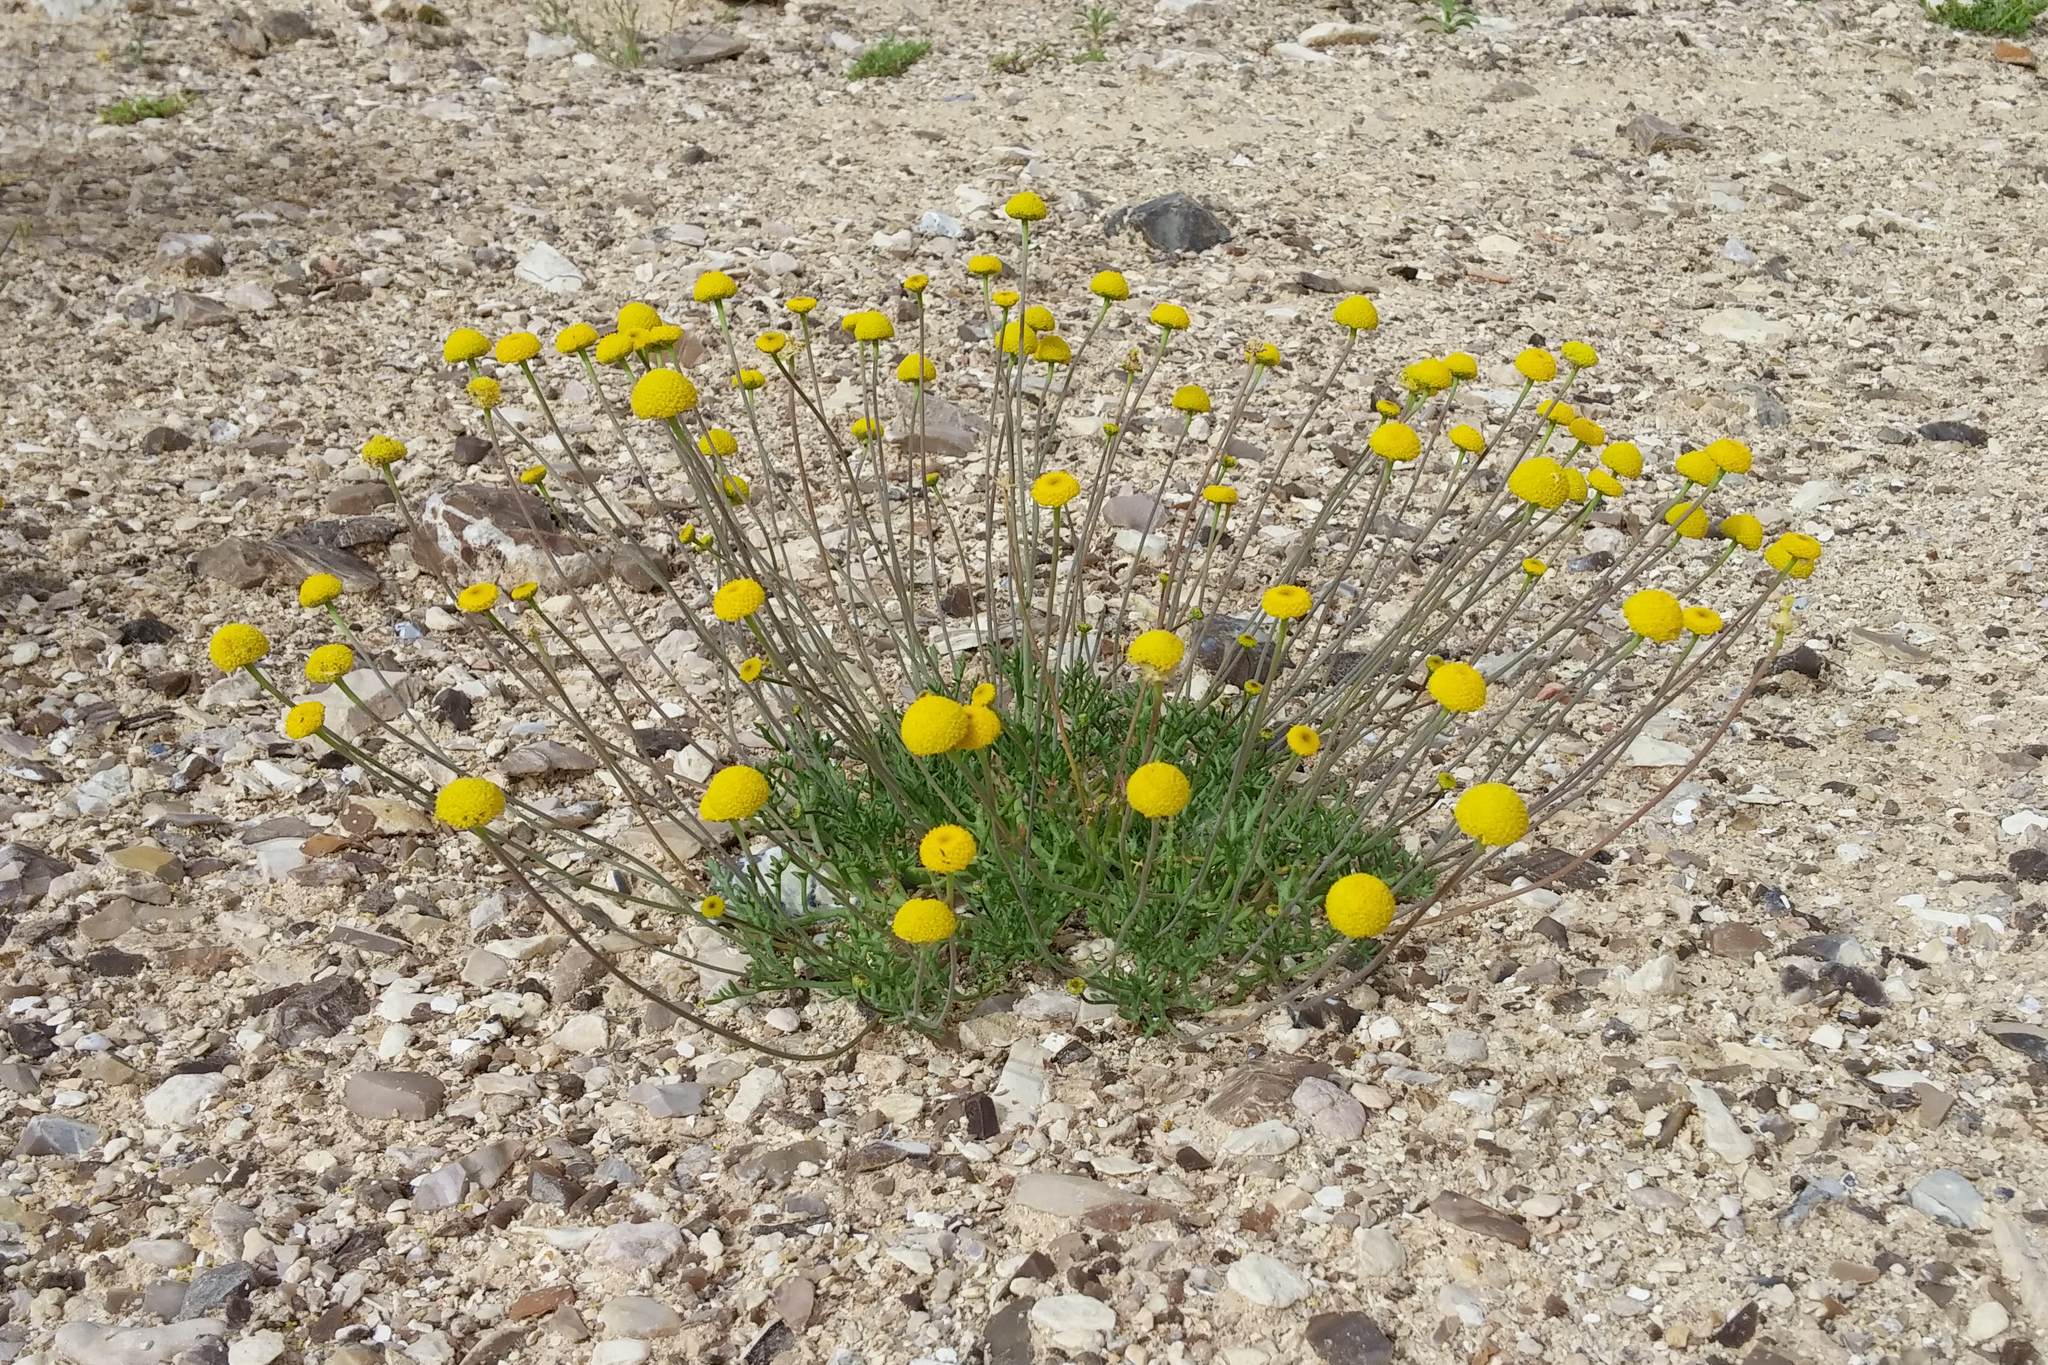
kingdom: Plantae
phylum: Tracheophyta
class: Magnoliopsida
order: Asterales
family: Asteraceae
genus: Otoglyphis
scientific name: Otoglyphis factorovskyi
